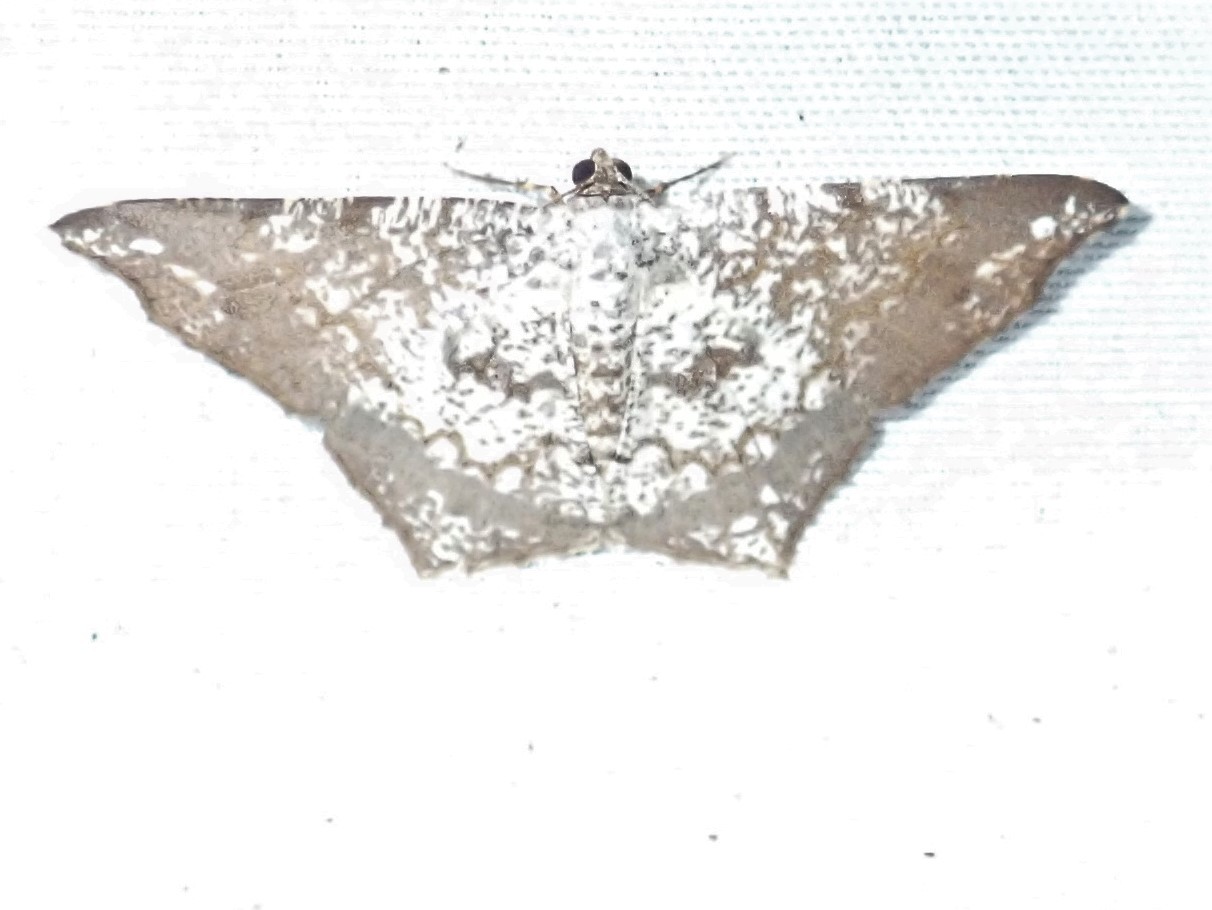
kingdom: Animalia
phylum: Arthropoda
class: Insecta
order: Lepidoptera
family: Geometridae
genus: Semiothisa
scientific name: Semiothisa salsa
